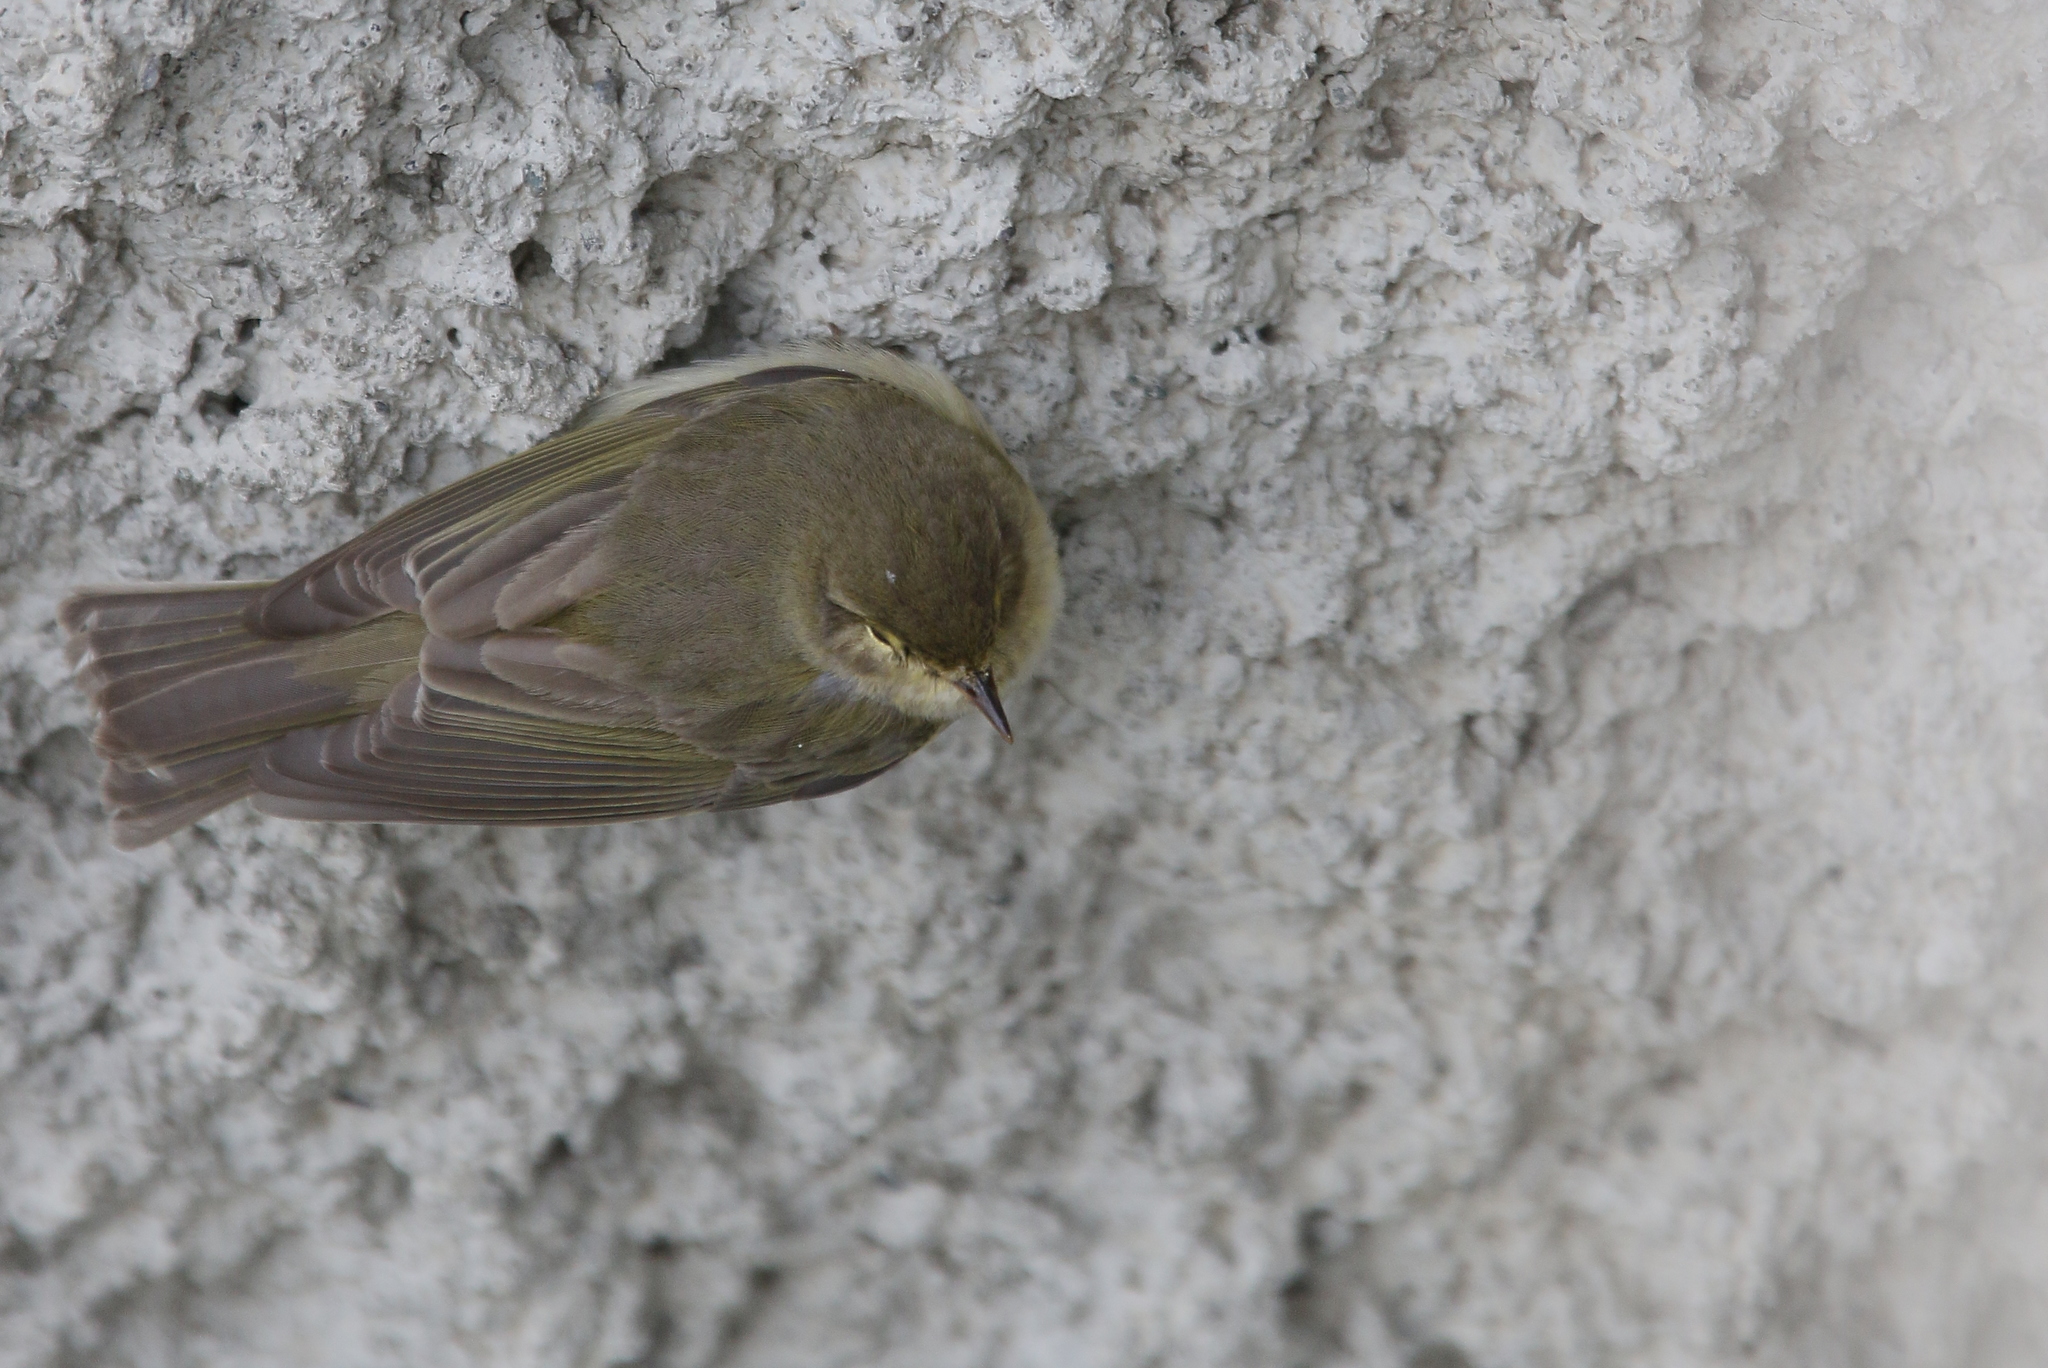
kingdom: Animalia
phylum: Chordata
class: Aves
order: Passeriformes
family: Phylloscopidae
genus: Phylloscopus
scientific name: Phylloscopus collybita
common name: Common chiffchaff
